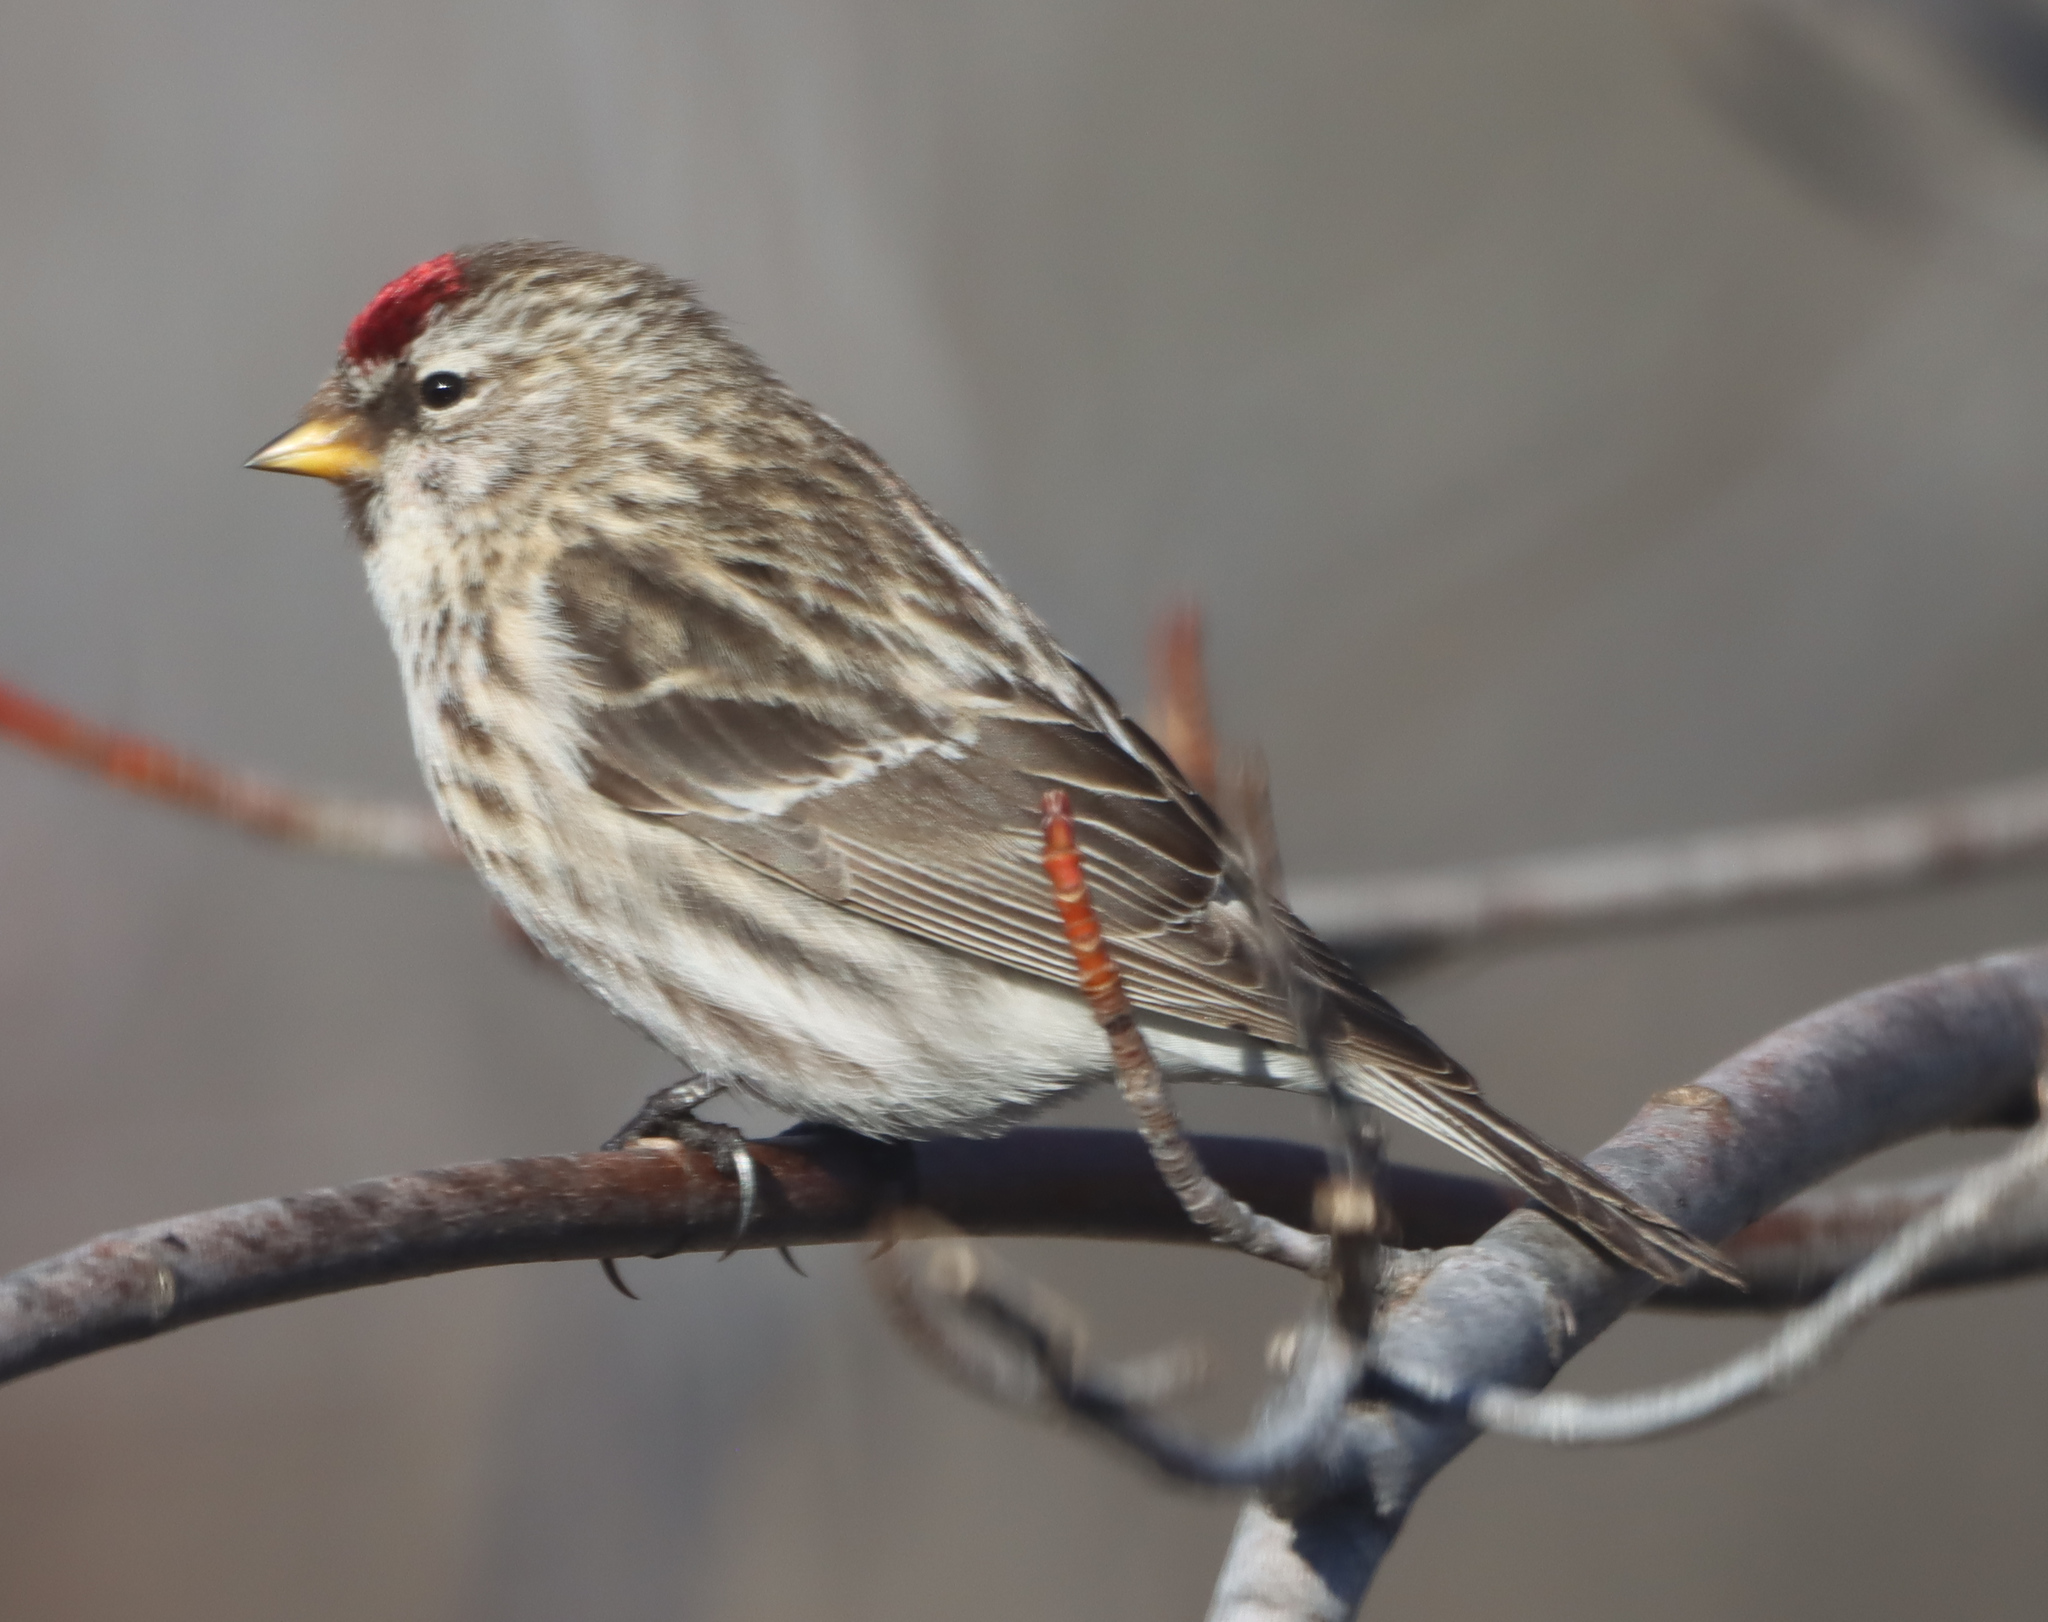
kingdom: Animalia
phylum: Chordata
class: Aves
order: Passeriformes
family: Fringillidae
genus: Acanthis
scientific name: Acanthis flammea
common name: Common redpoll
